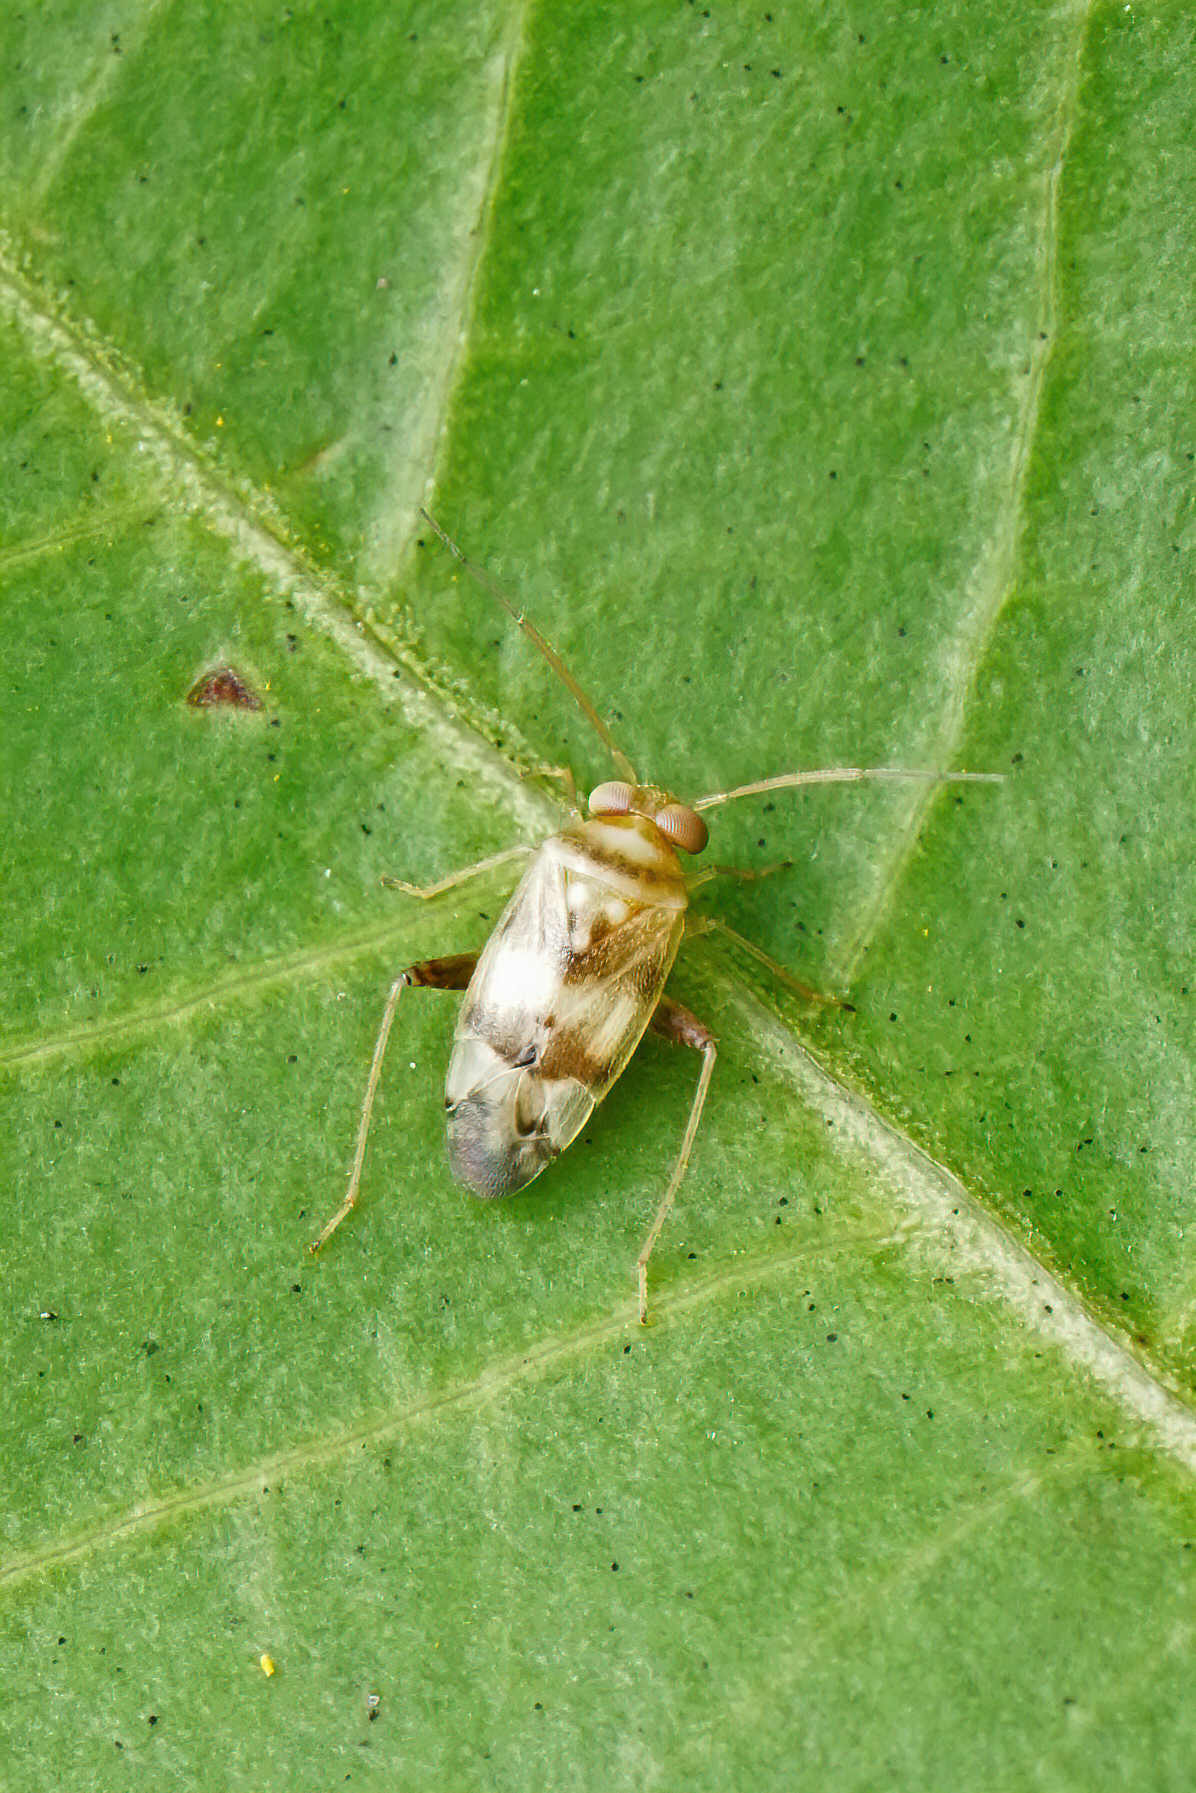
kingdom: Animalia
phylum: Arthropoda
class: Insecta
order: Hemiptera
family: Miridae
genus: Dagbertus
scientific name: Dagbertus fasciatus
